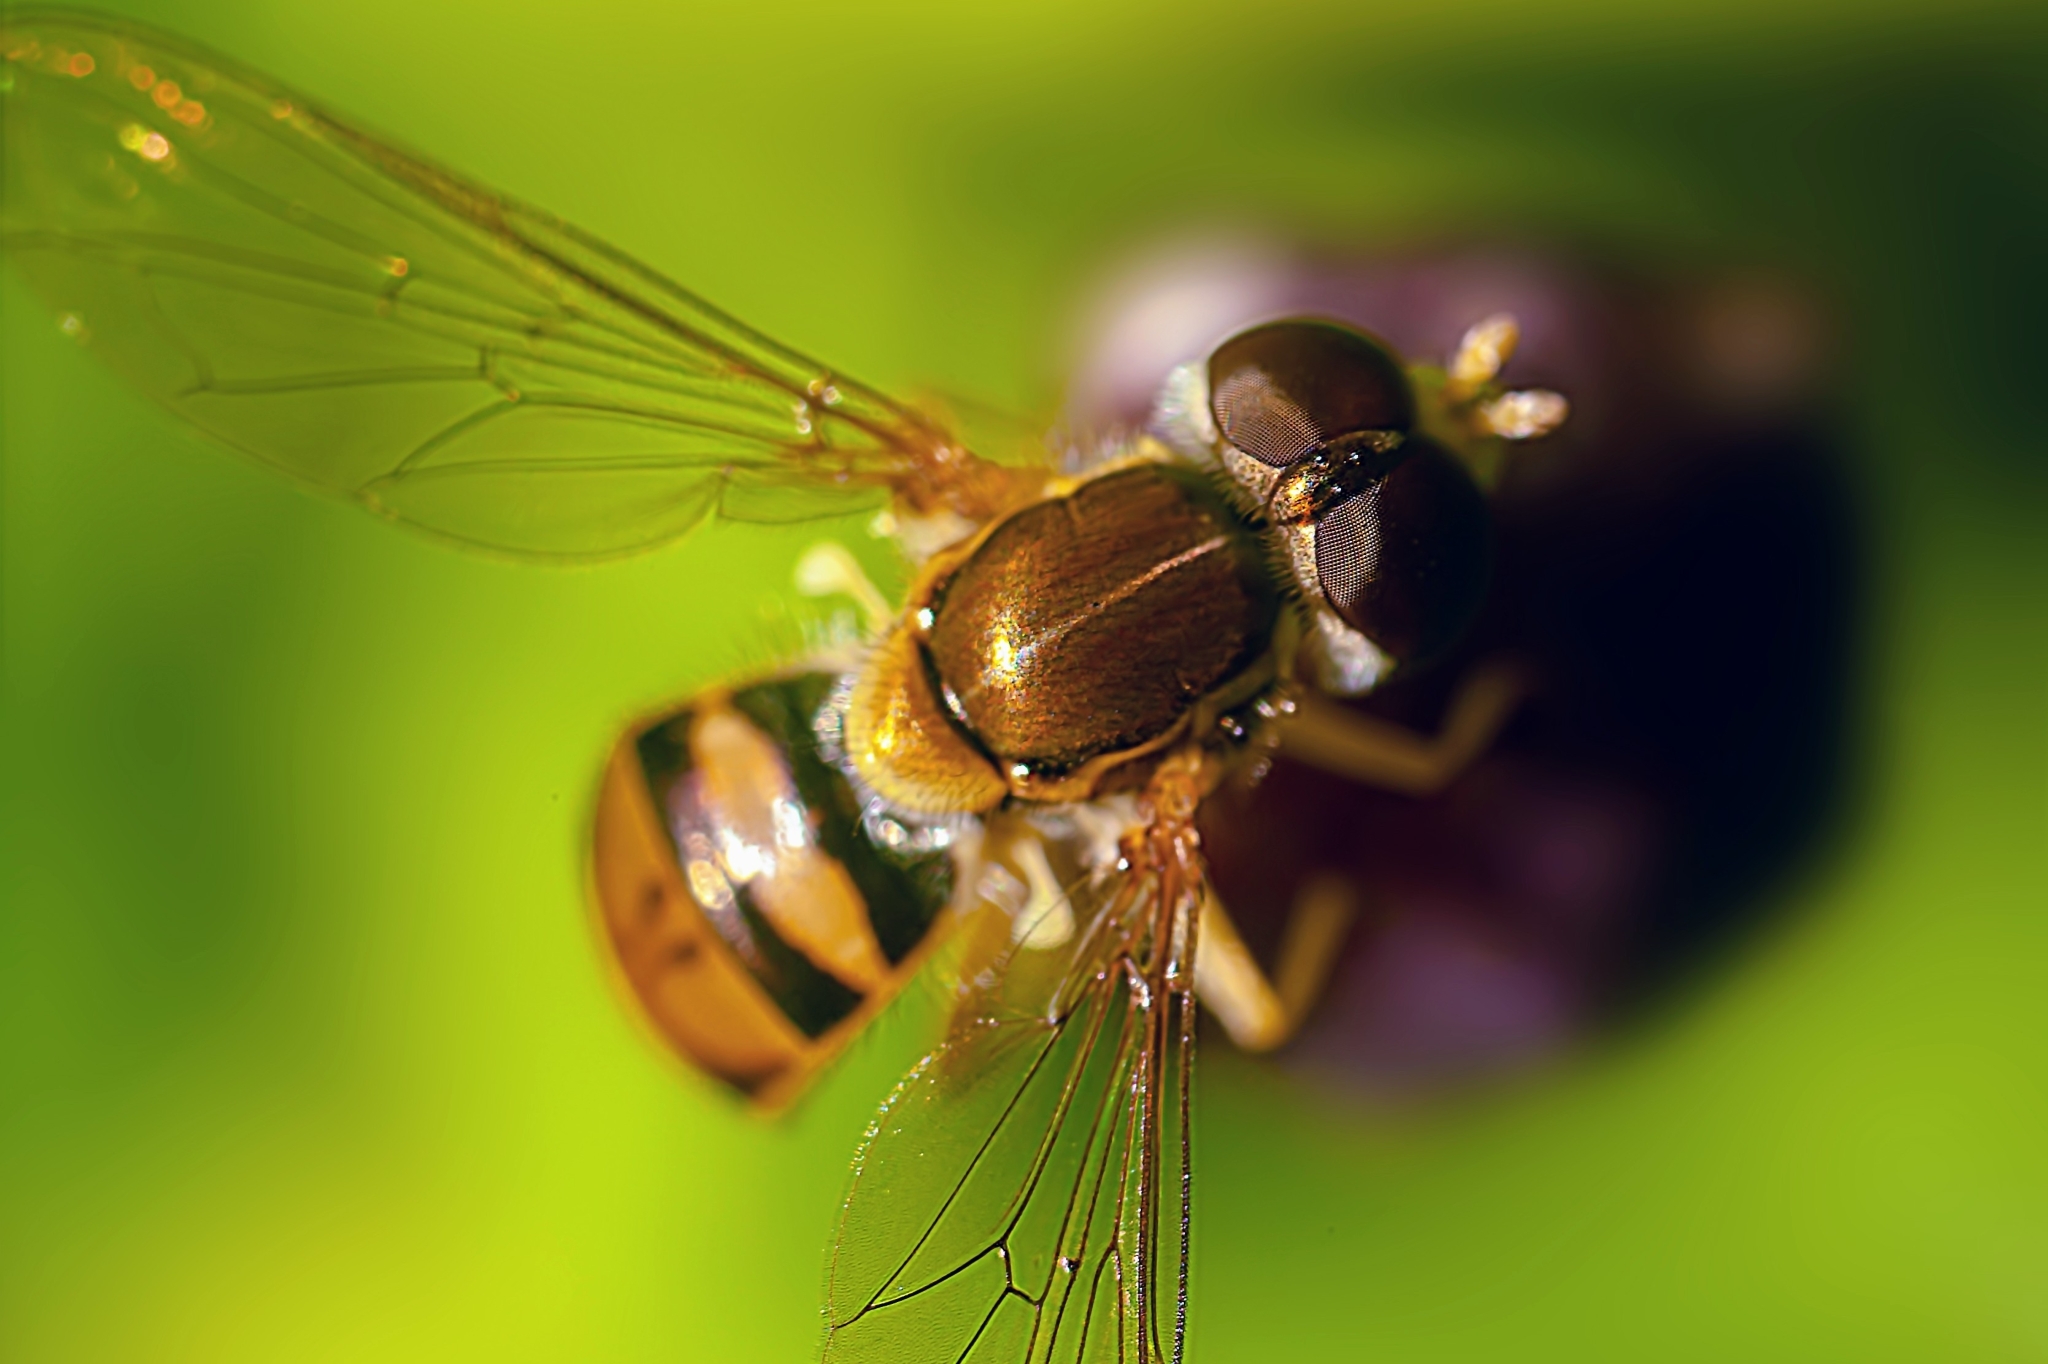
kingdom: Animalia
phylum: Arthropoda
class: Insecta
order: Diptera
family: Syrphidae
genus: Toxomerus
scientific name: Toxomerus marginatus
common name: Syrphid fly
